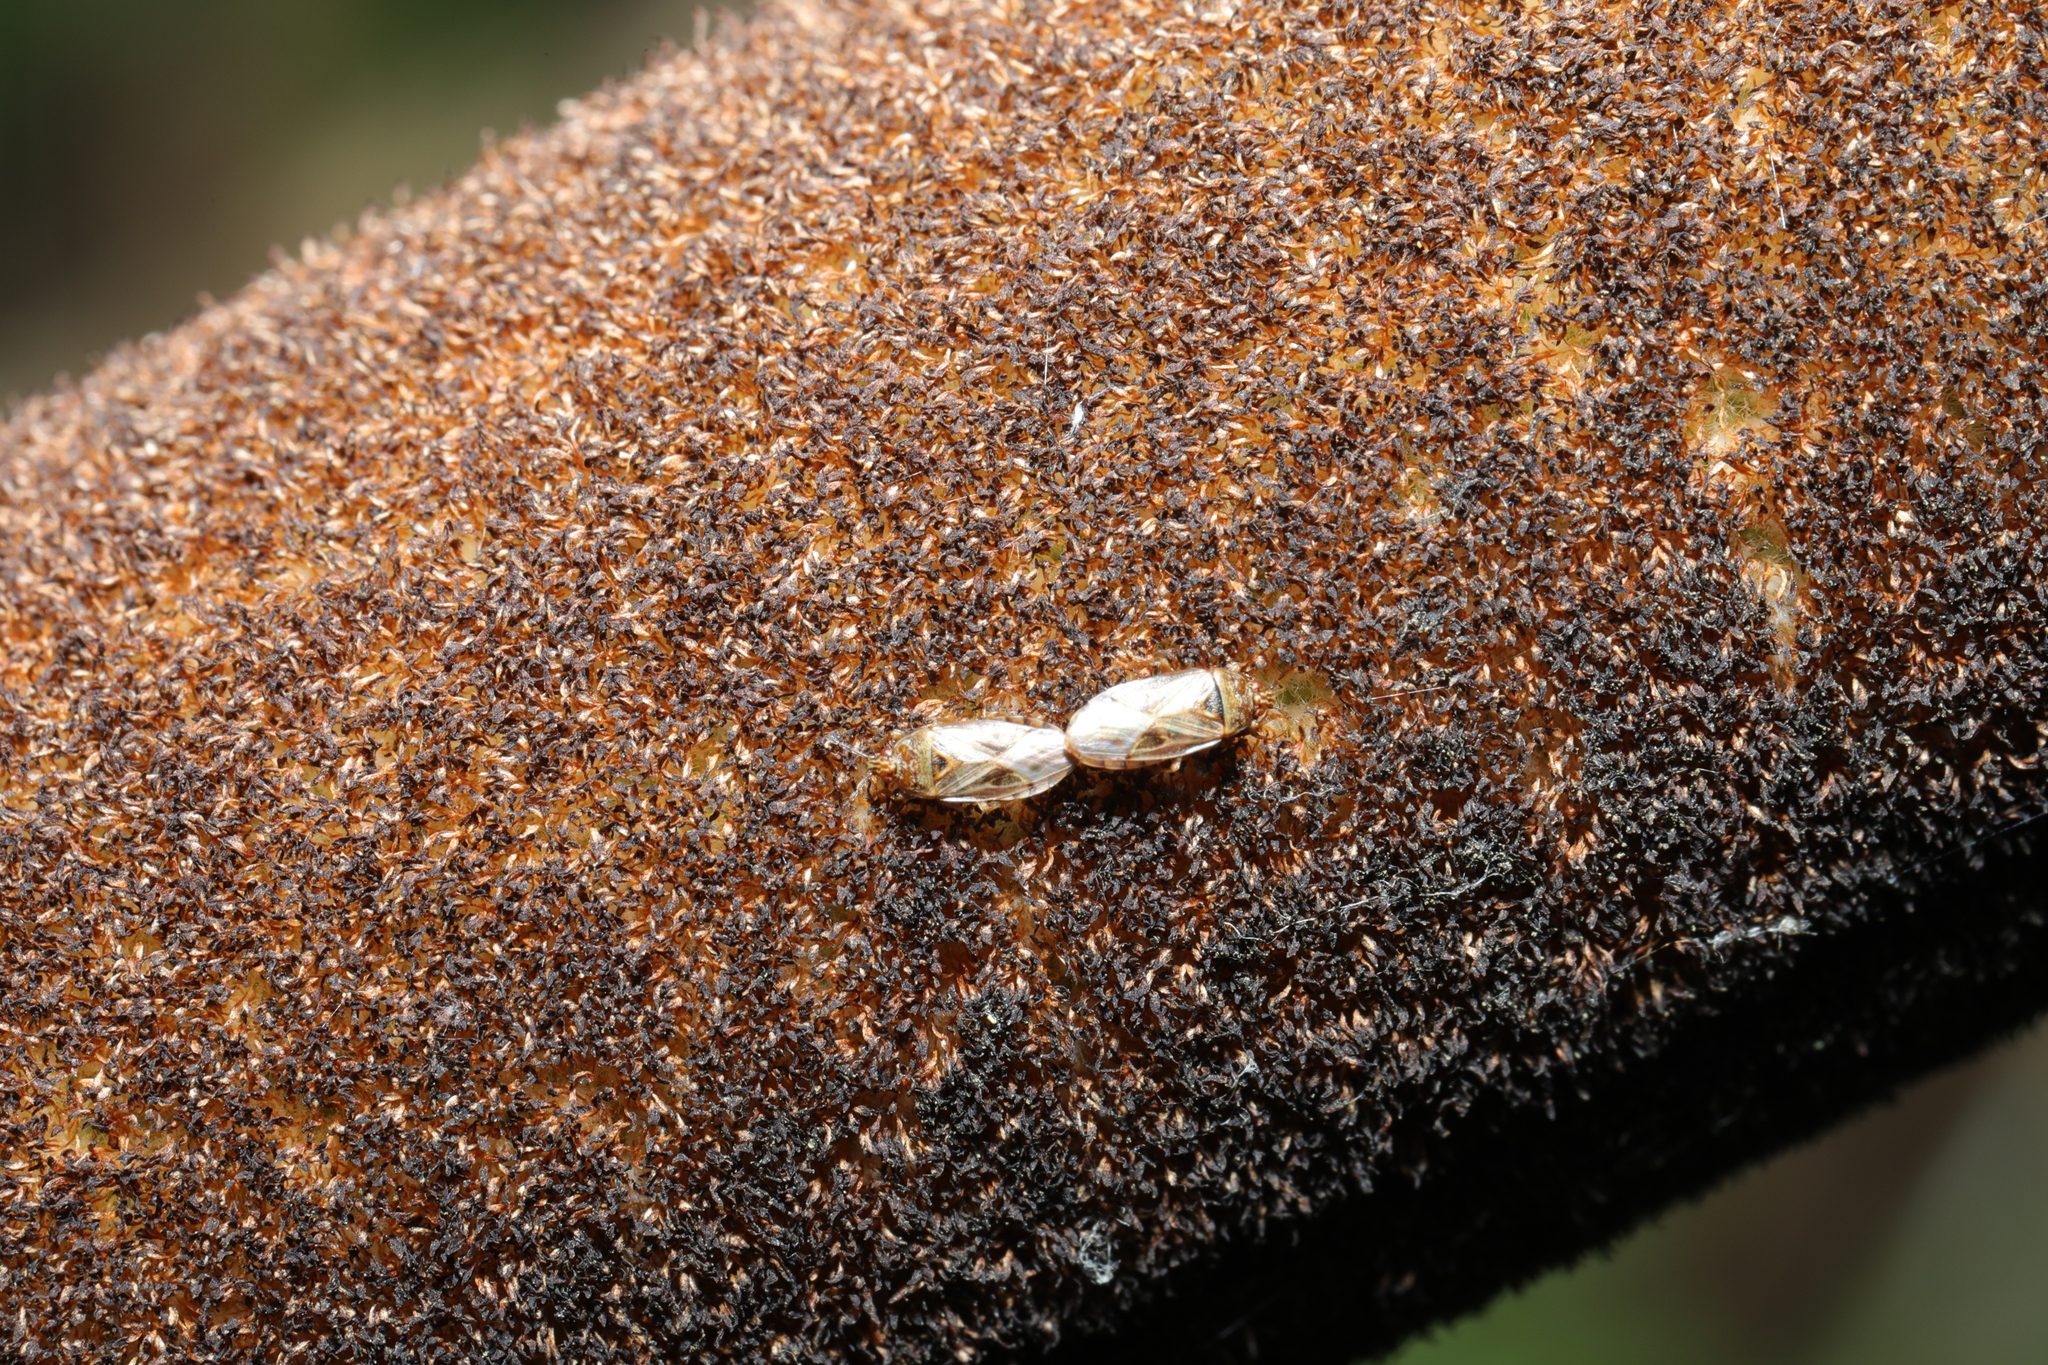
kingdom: Animalia
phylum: Arthropoda
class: Insecta
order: Hemiptera
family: Artheneidae
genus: Chilacis
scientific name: Chilacis typhae
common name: Cattail bug
